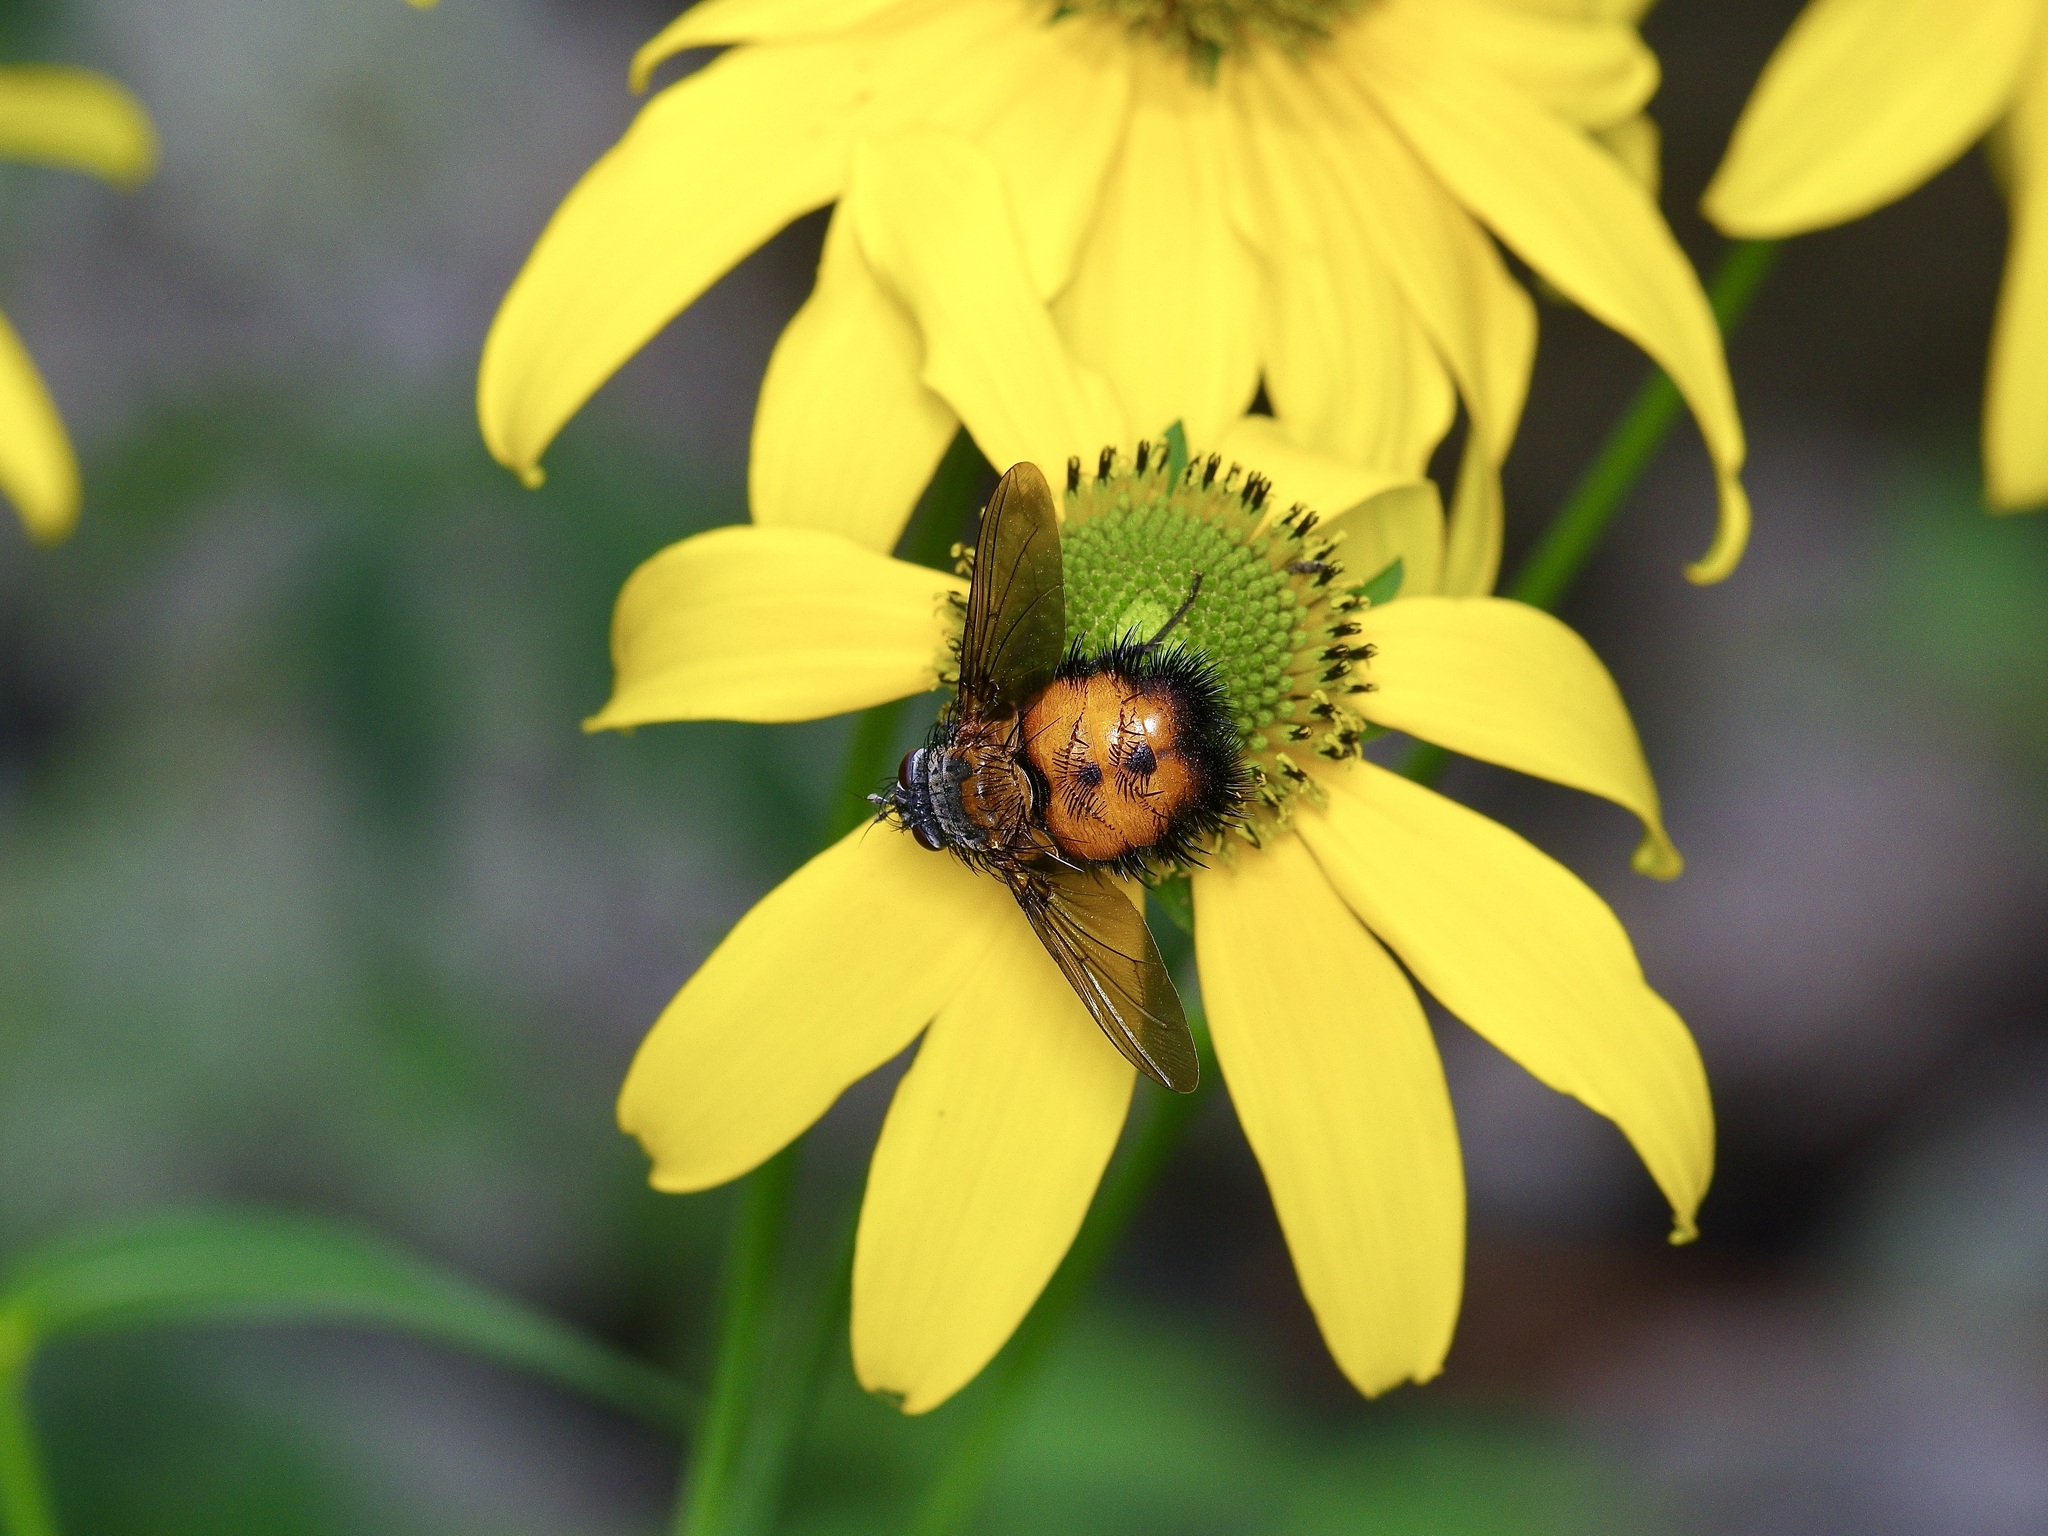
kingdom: Animalia
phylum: Arthropoda
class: Insecta
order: Diptera
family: Tachinidae
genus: Paradejeania
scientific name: Paradejeania rutilioides
